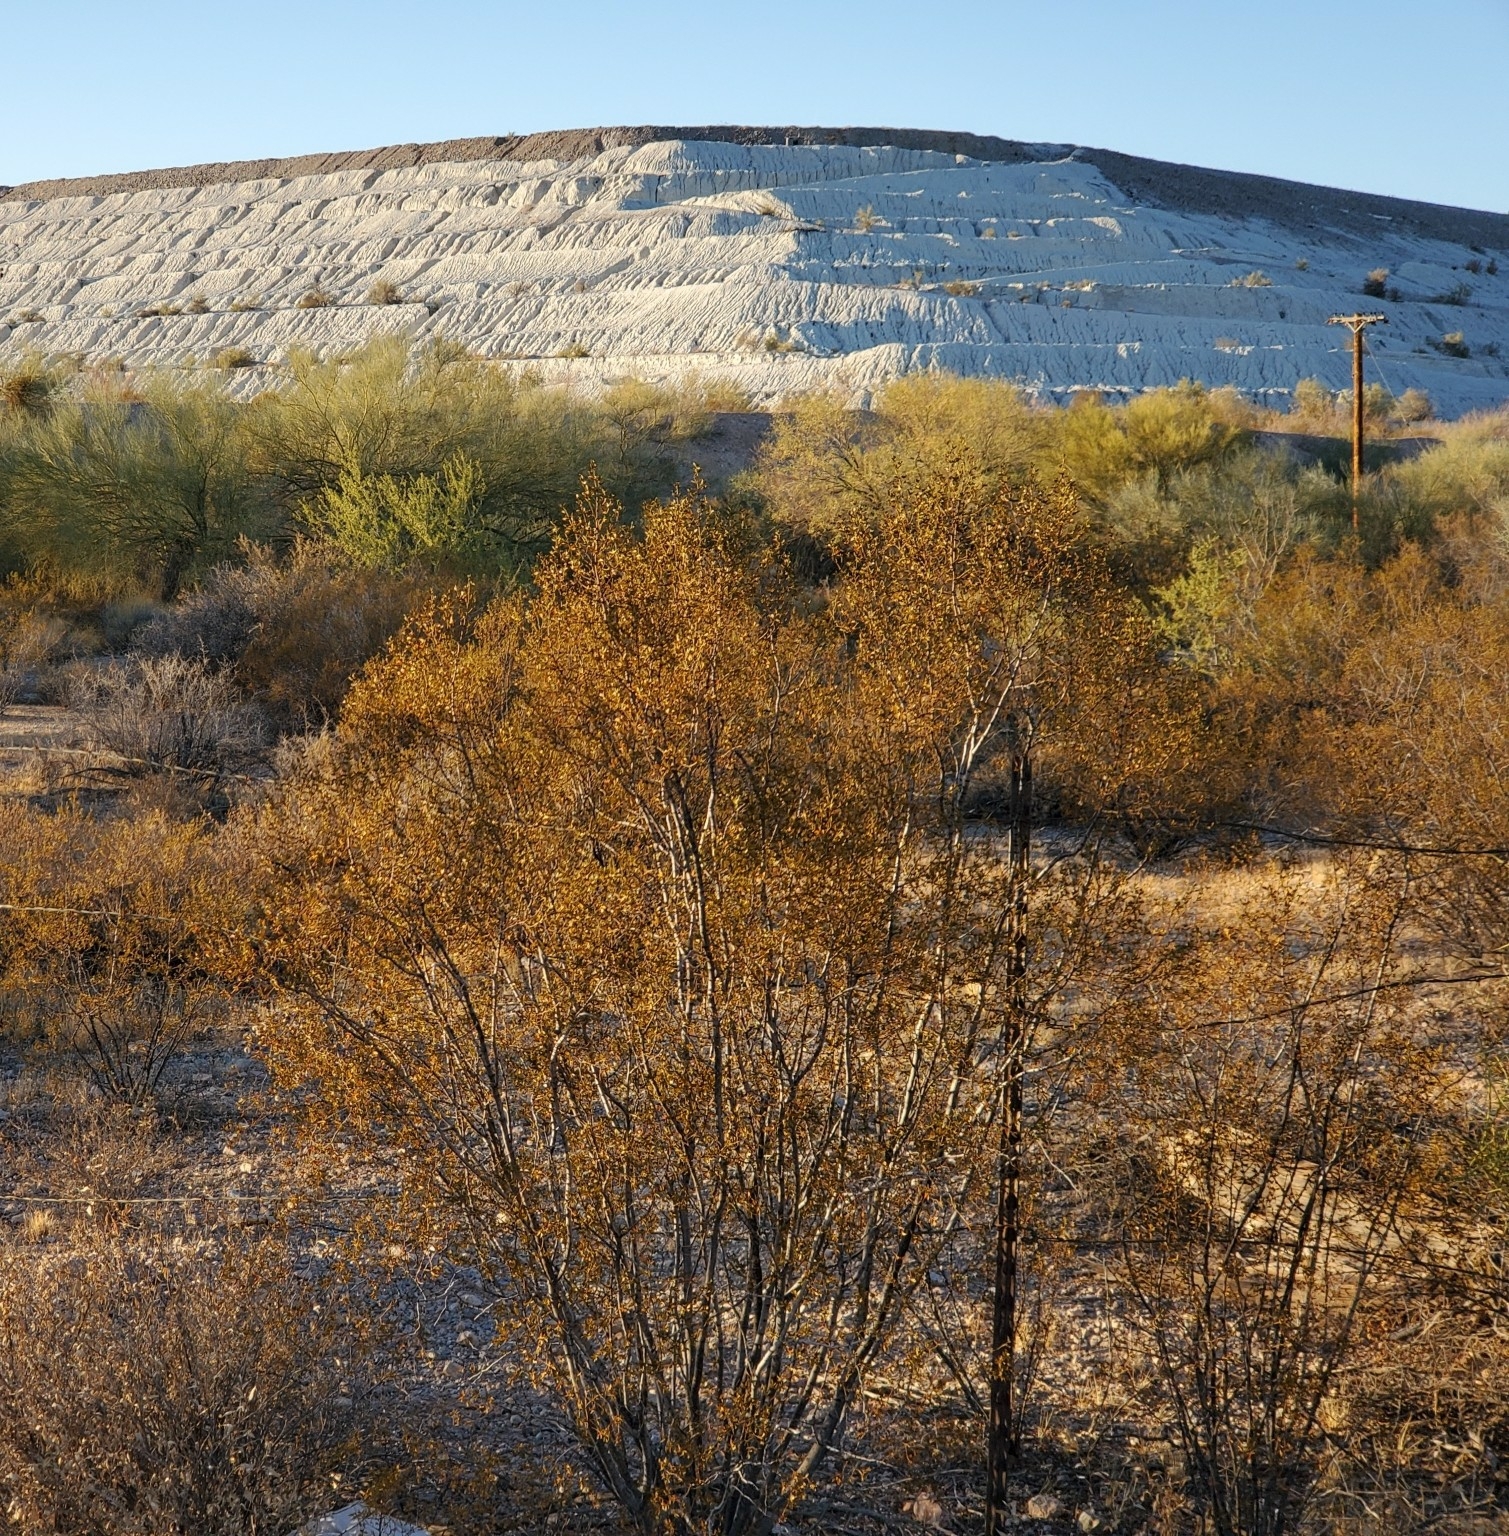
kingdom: Plantae
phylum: Tracheophyta
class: Magnoliopsida
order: Zygophyllales
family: Zygophyllaceae
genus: Larrea
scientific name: Larrea tridentata
